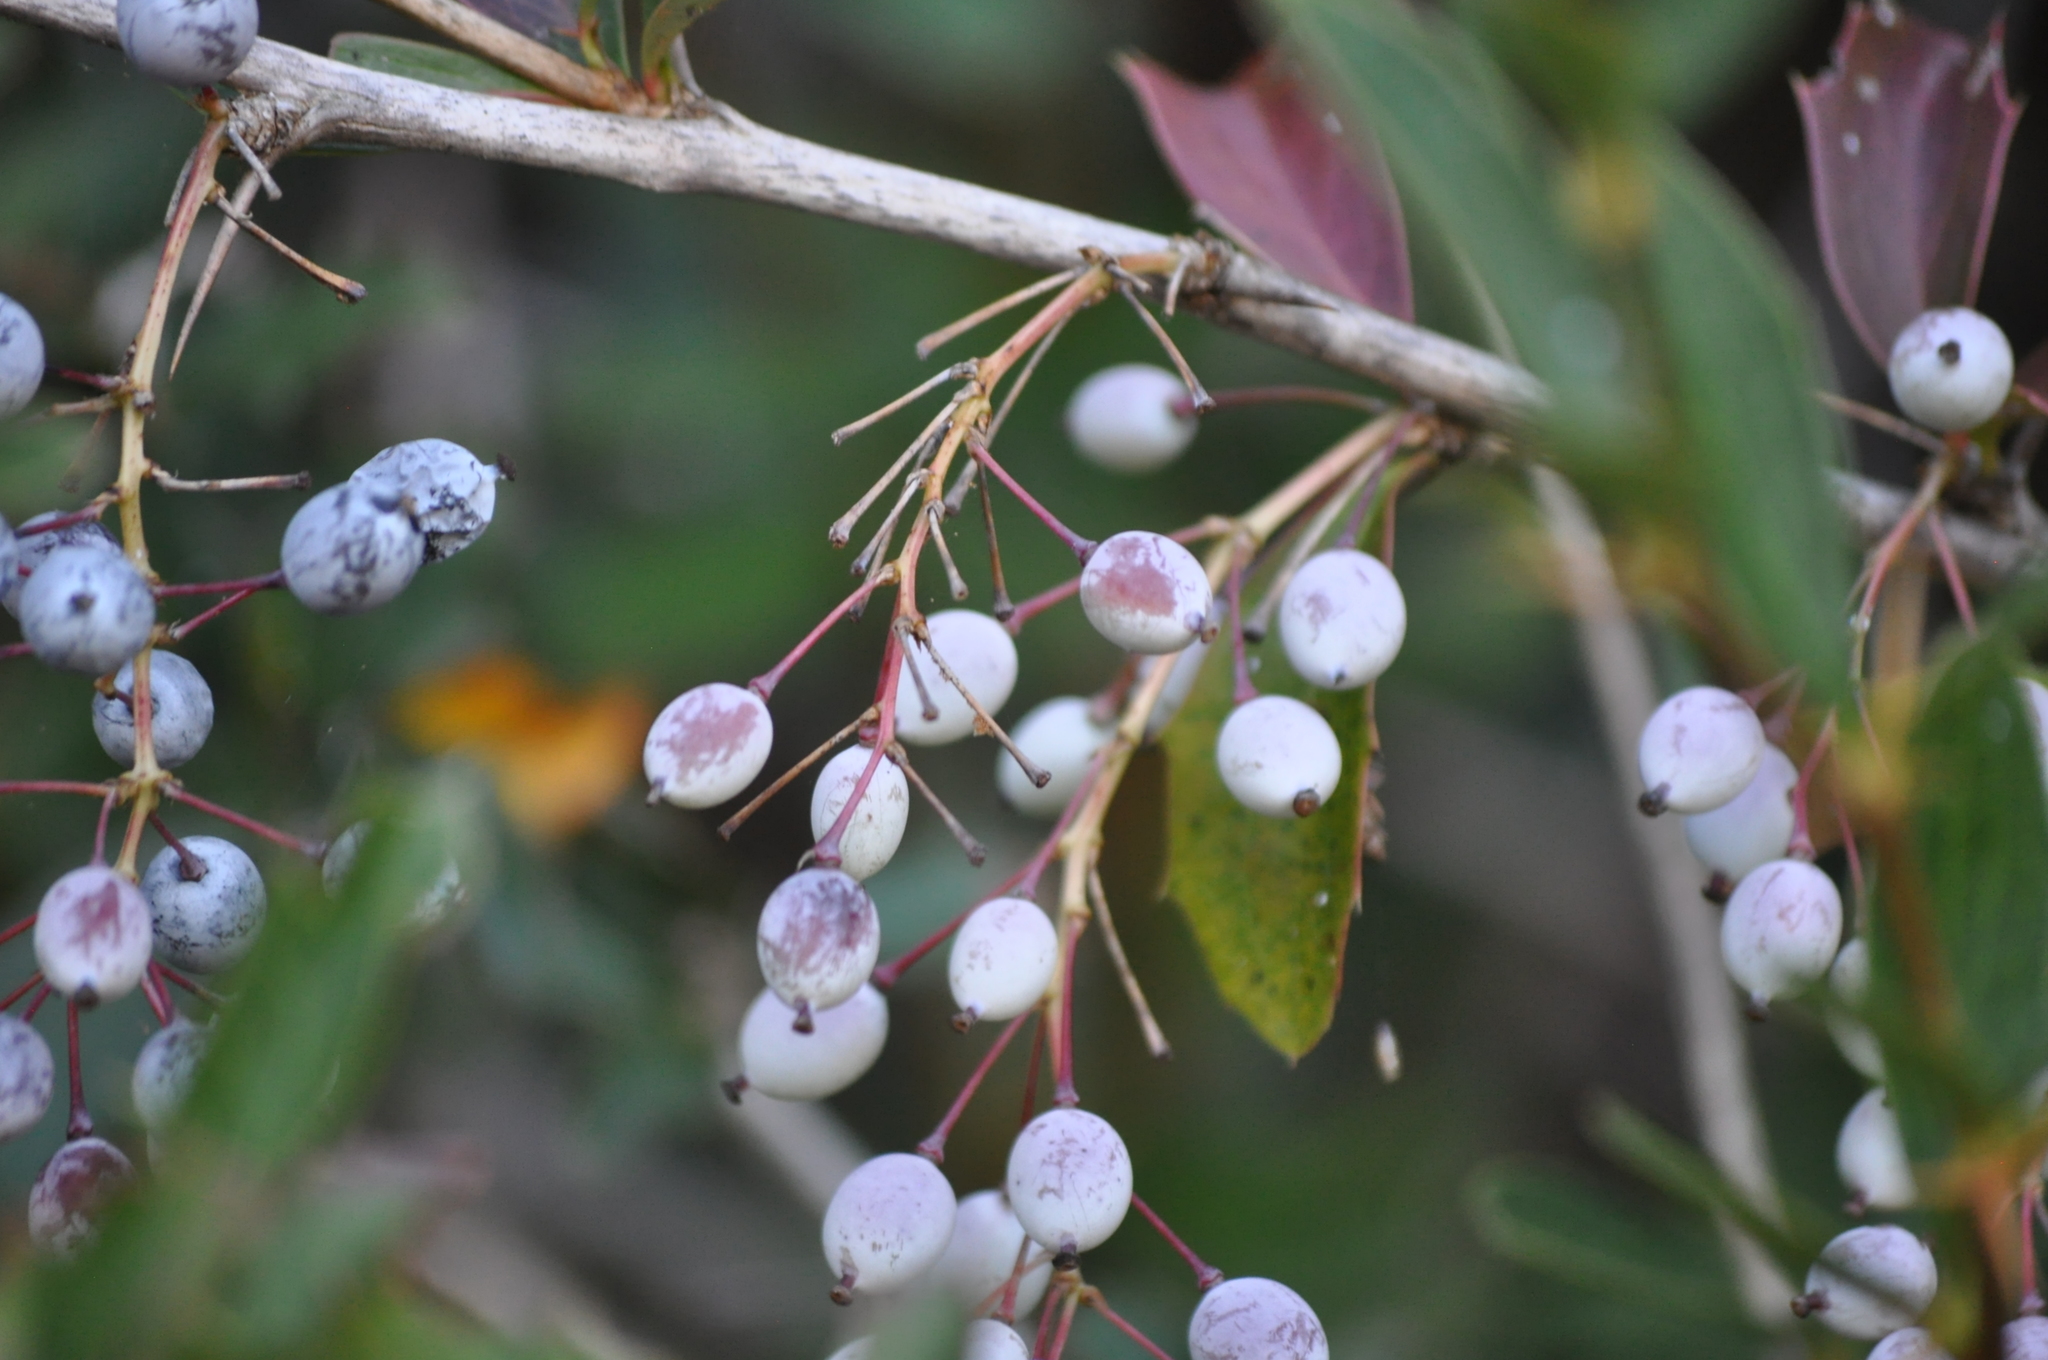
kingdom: Plantae
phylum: Tracheophyta
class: Magnoliopsida
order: Ranunculales
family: Berberidaceae
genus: Berberis
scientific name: Berberis glaucocarpa
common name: Great barberry
